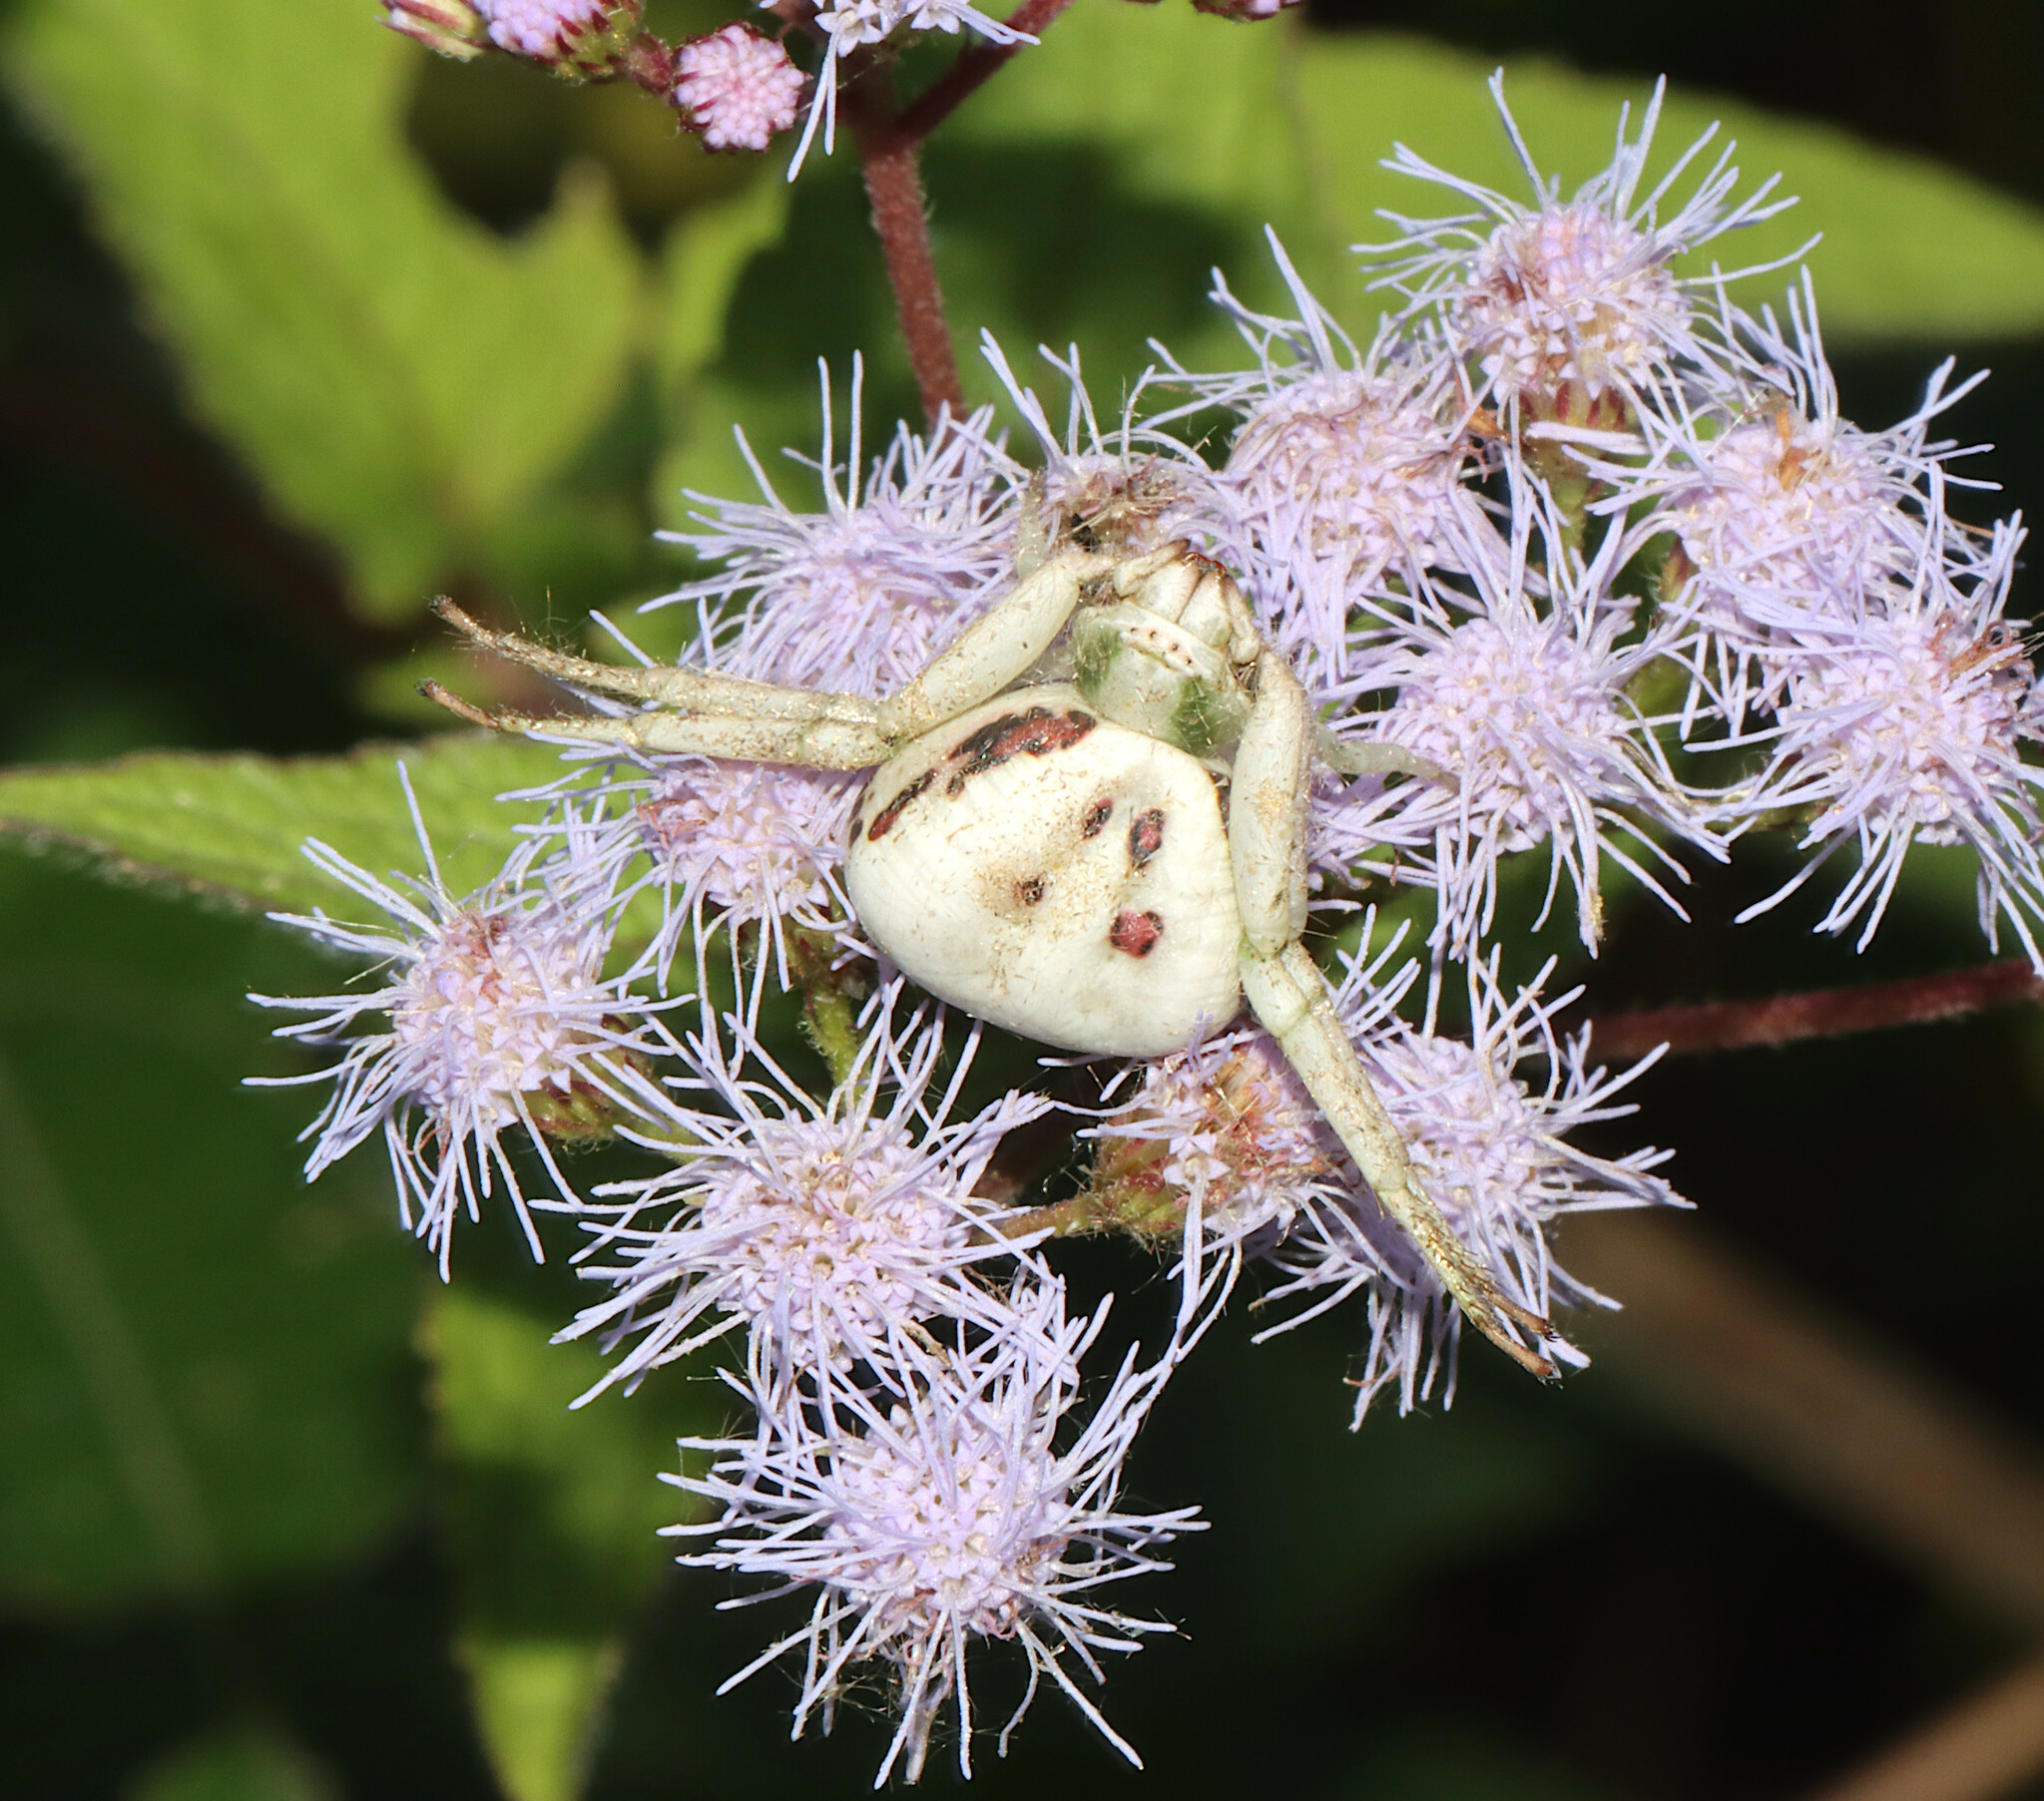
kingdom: Animalia
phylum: Arthropoda
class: Arachnida
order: Araneae
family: Thomisidae
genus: Misumenoides
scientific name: Misumenoides formosipes
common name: White-banded crab spider
